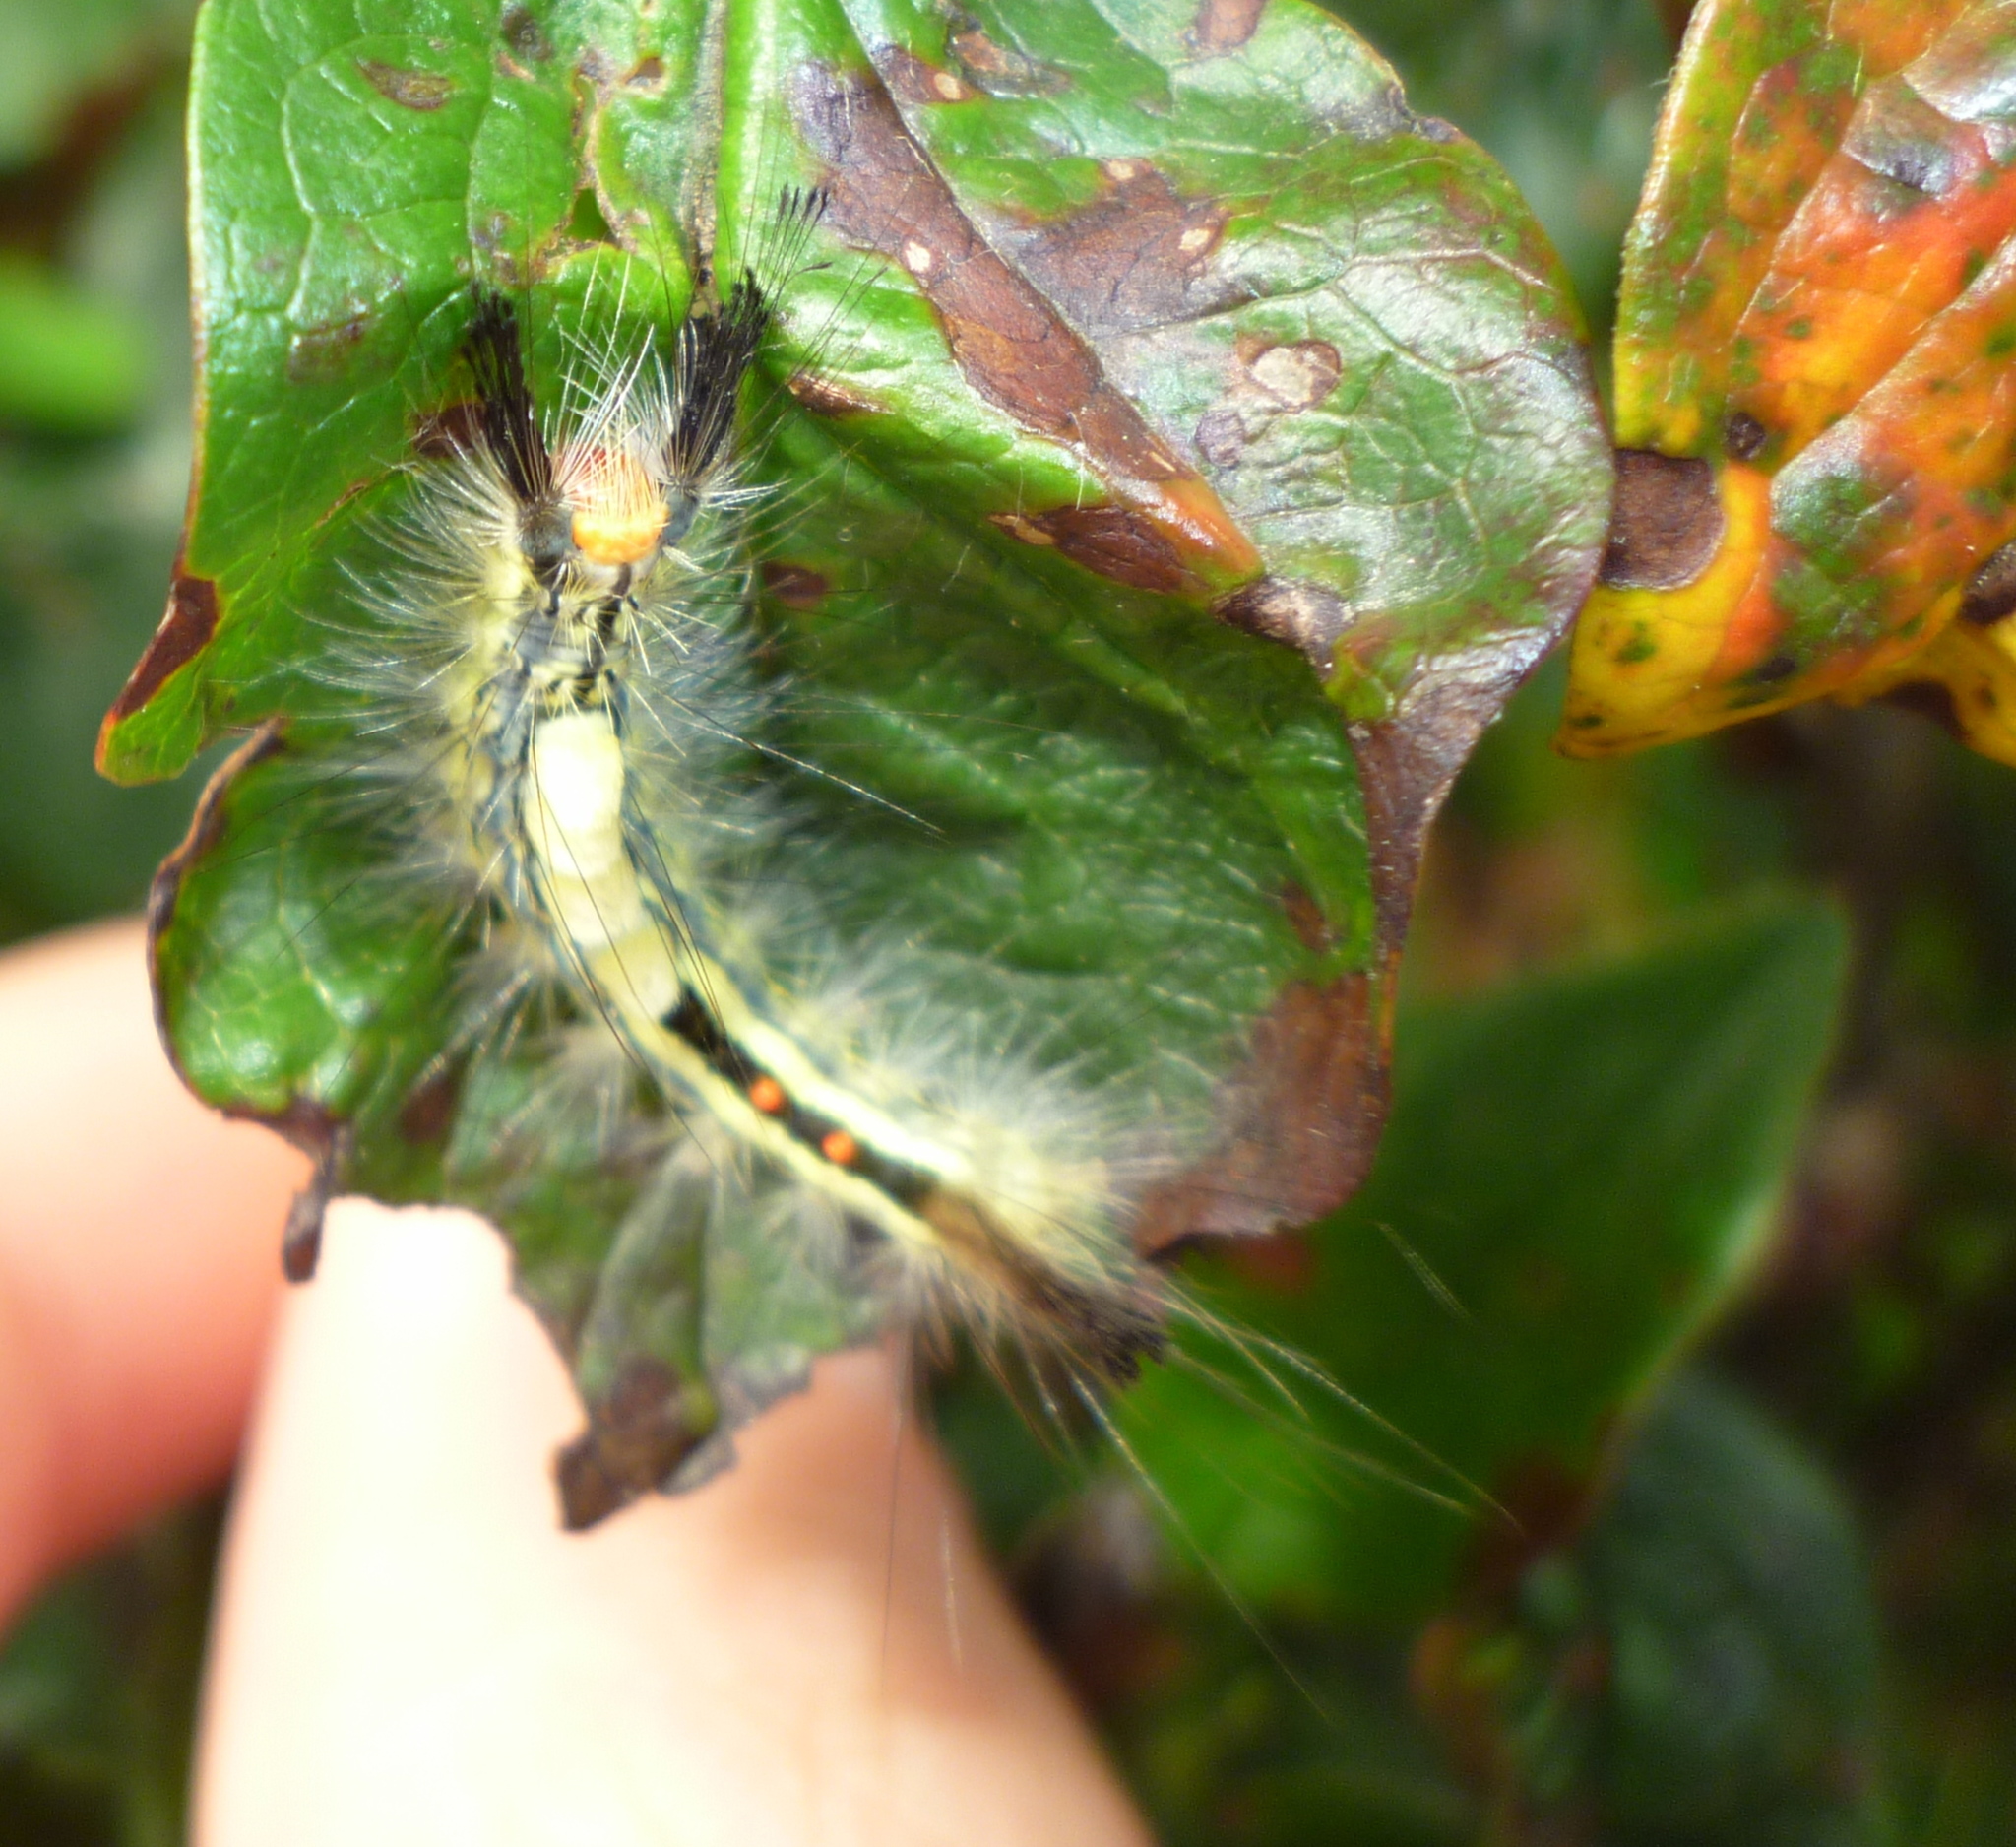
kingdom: Animalia
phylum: Arthropoda
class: Insecta
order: Lepidoptera
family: Erebidae
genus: Orgyia
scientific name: Orgyia leucostigma
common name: White-marked tussock moth
